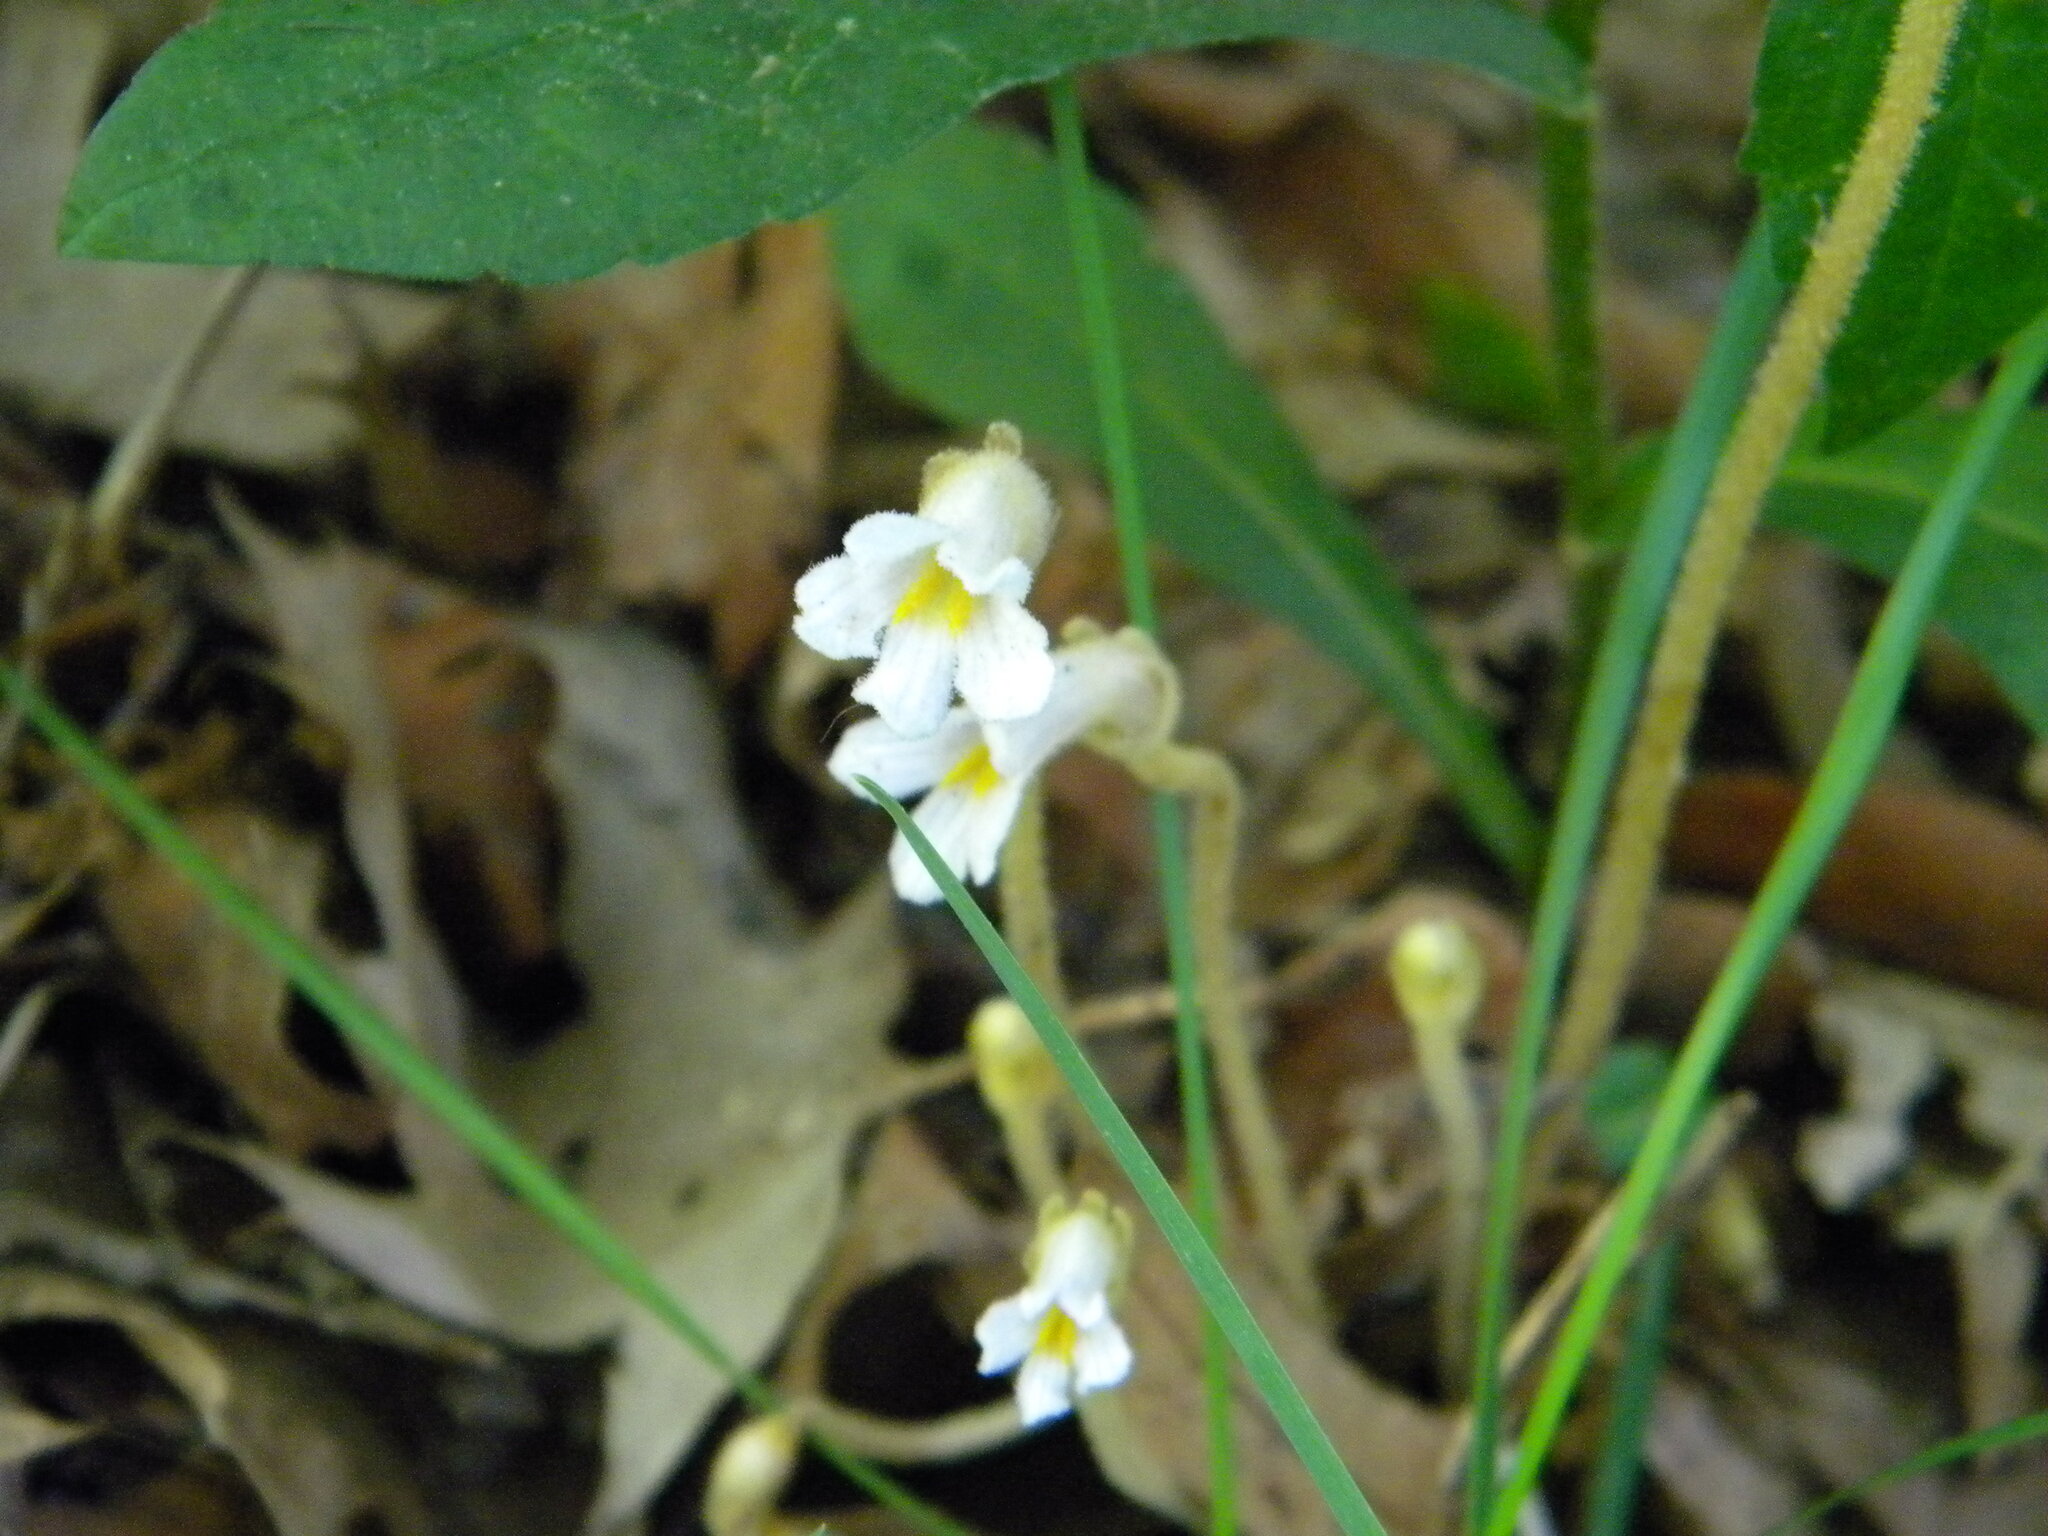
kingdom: Plantae
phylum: Tracheophyta
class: Magnoliopsida
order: Lamiales
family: Orobanchaceae
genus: Aphyllon
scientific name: Aphyllon uniflorum
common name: One-flowered broomrape
